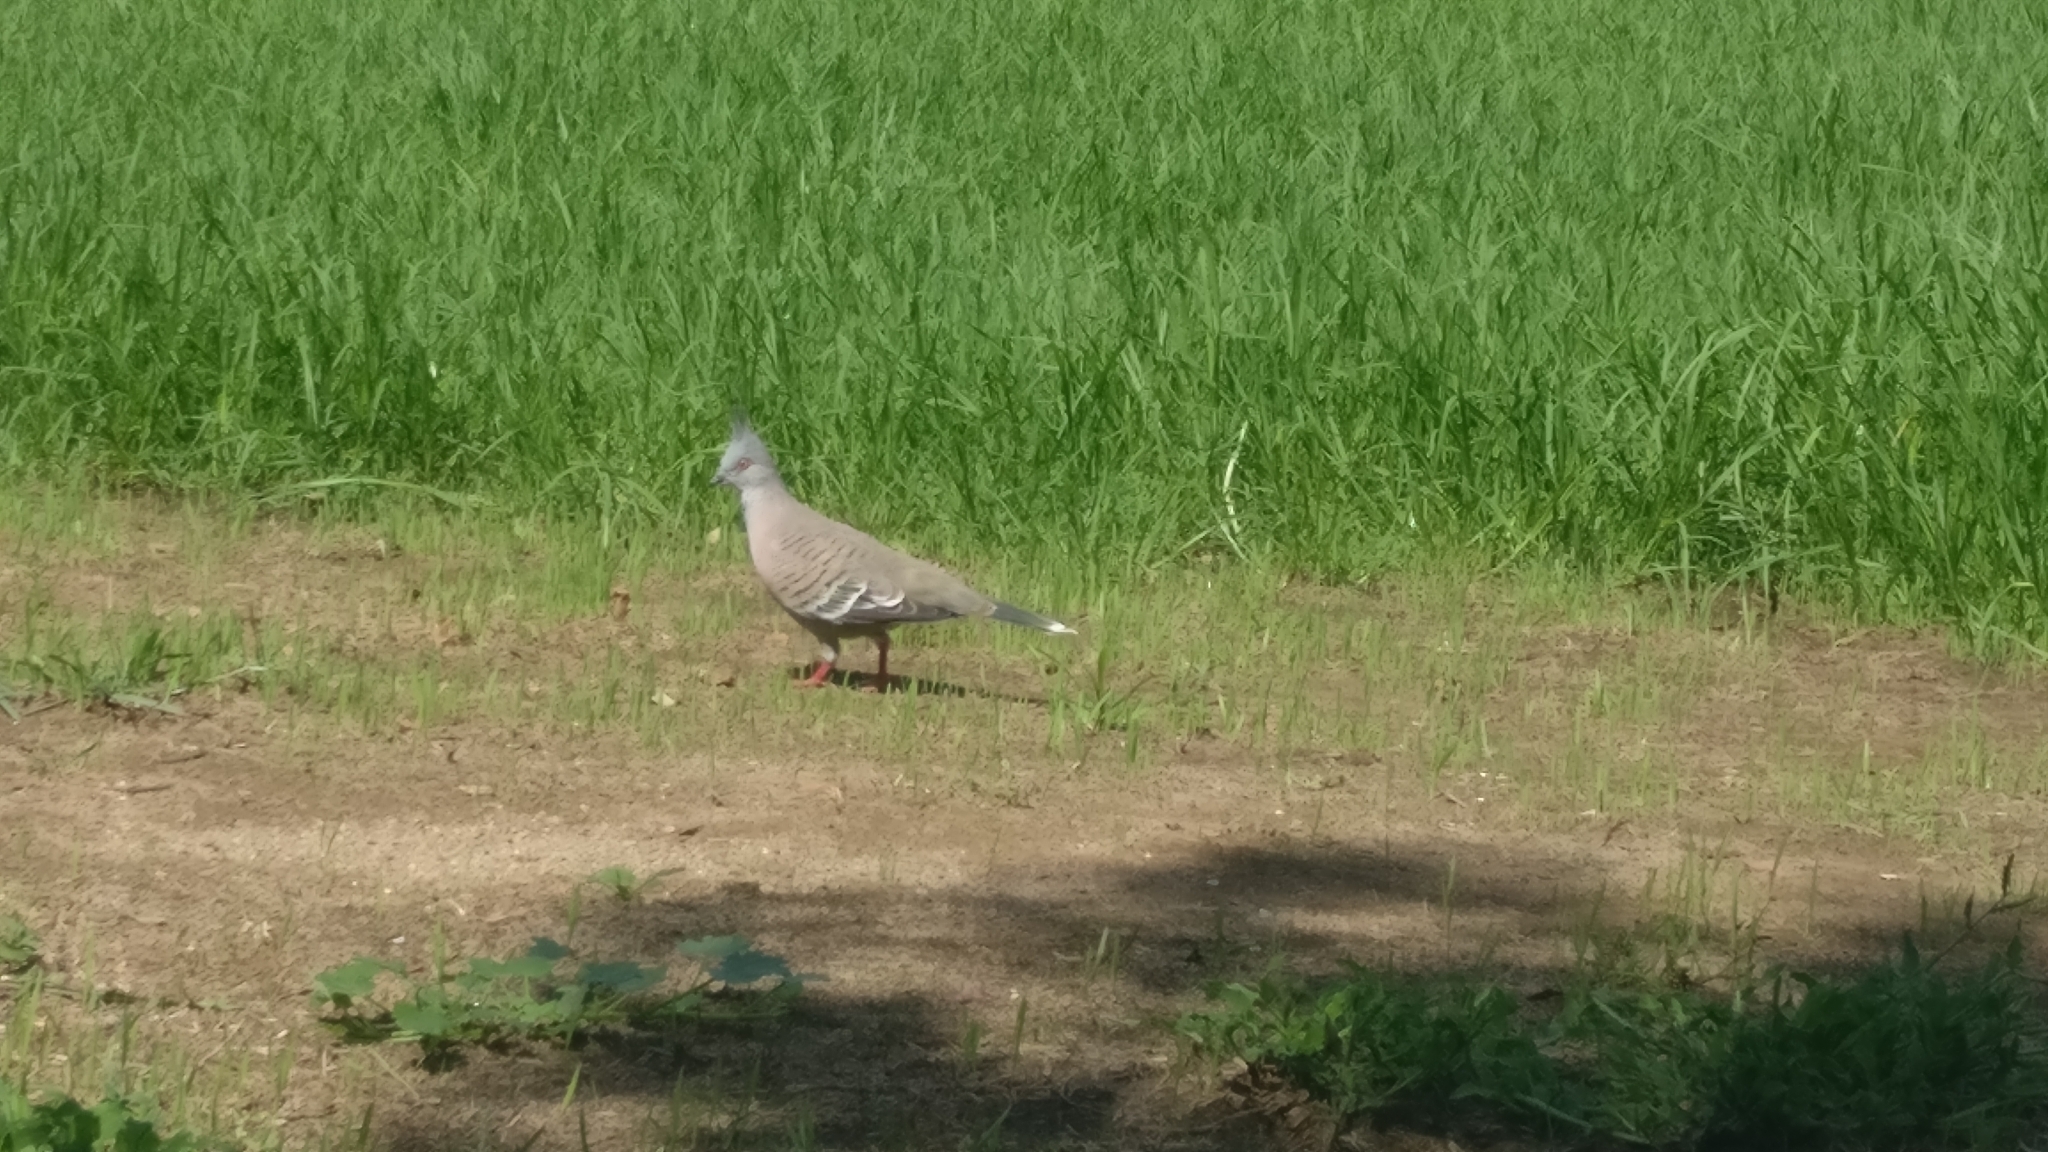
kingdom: Animalia
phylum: Chordata
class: Aves
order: Columbiformes
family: Columbidae
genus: Ocyphaps
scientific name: Ocyphaps lophotes
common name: Crested pigeon
